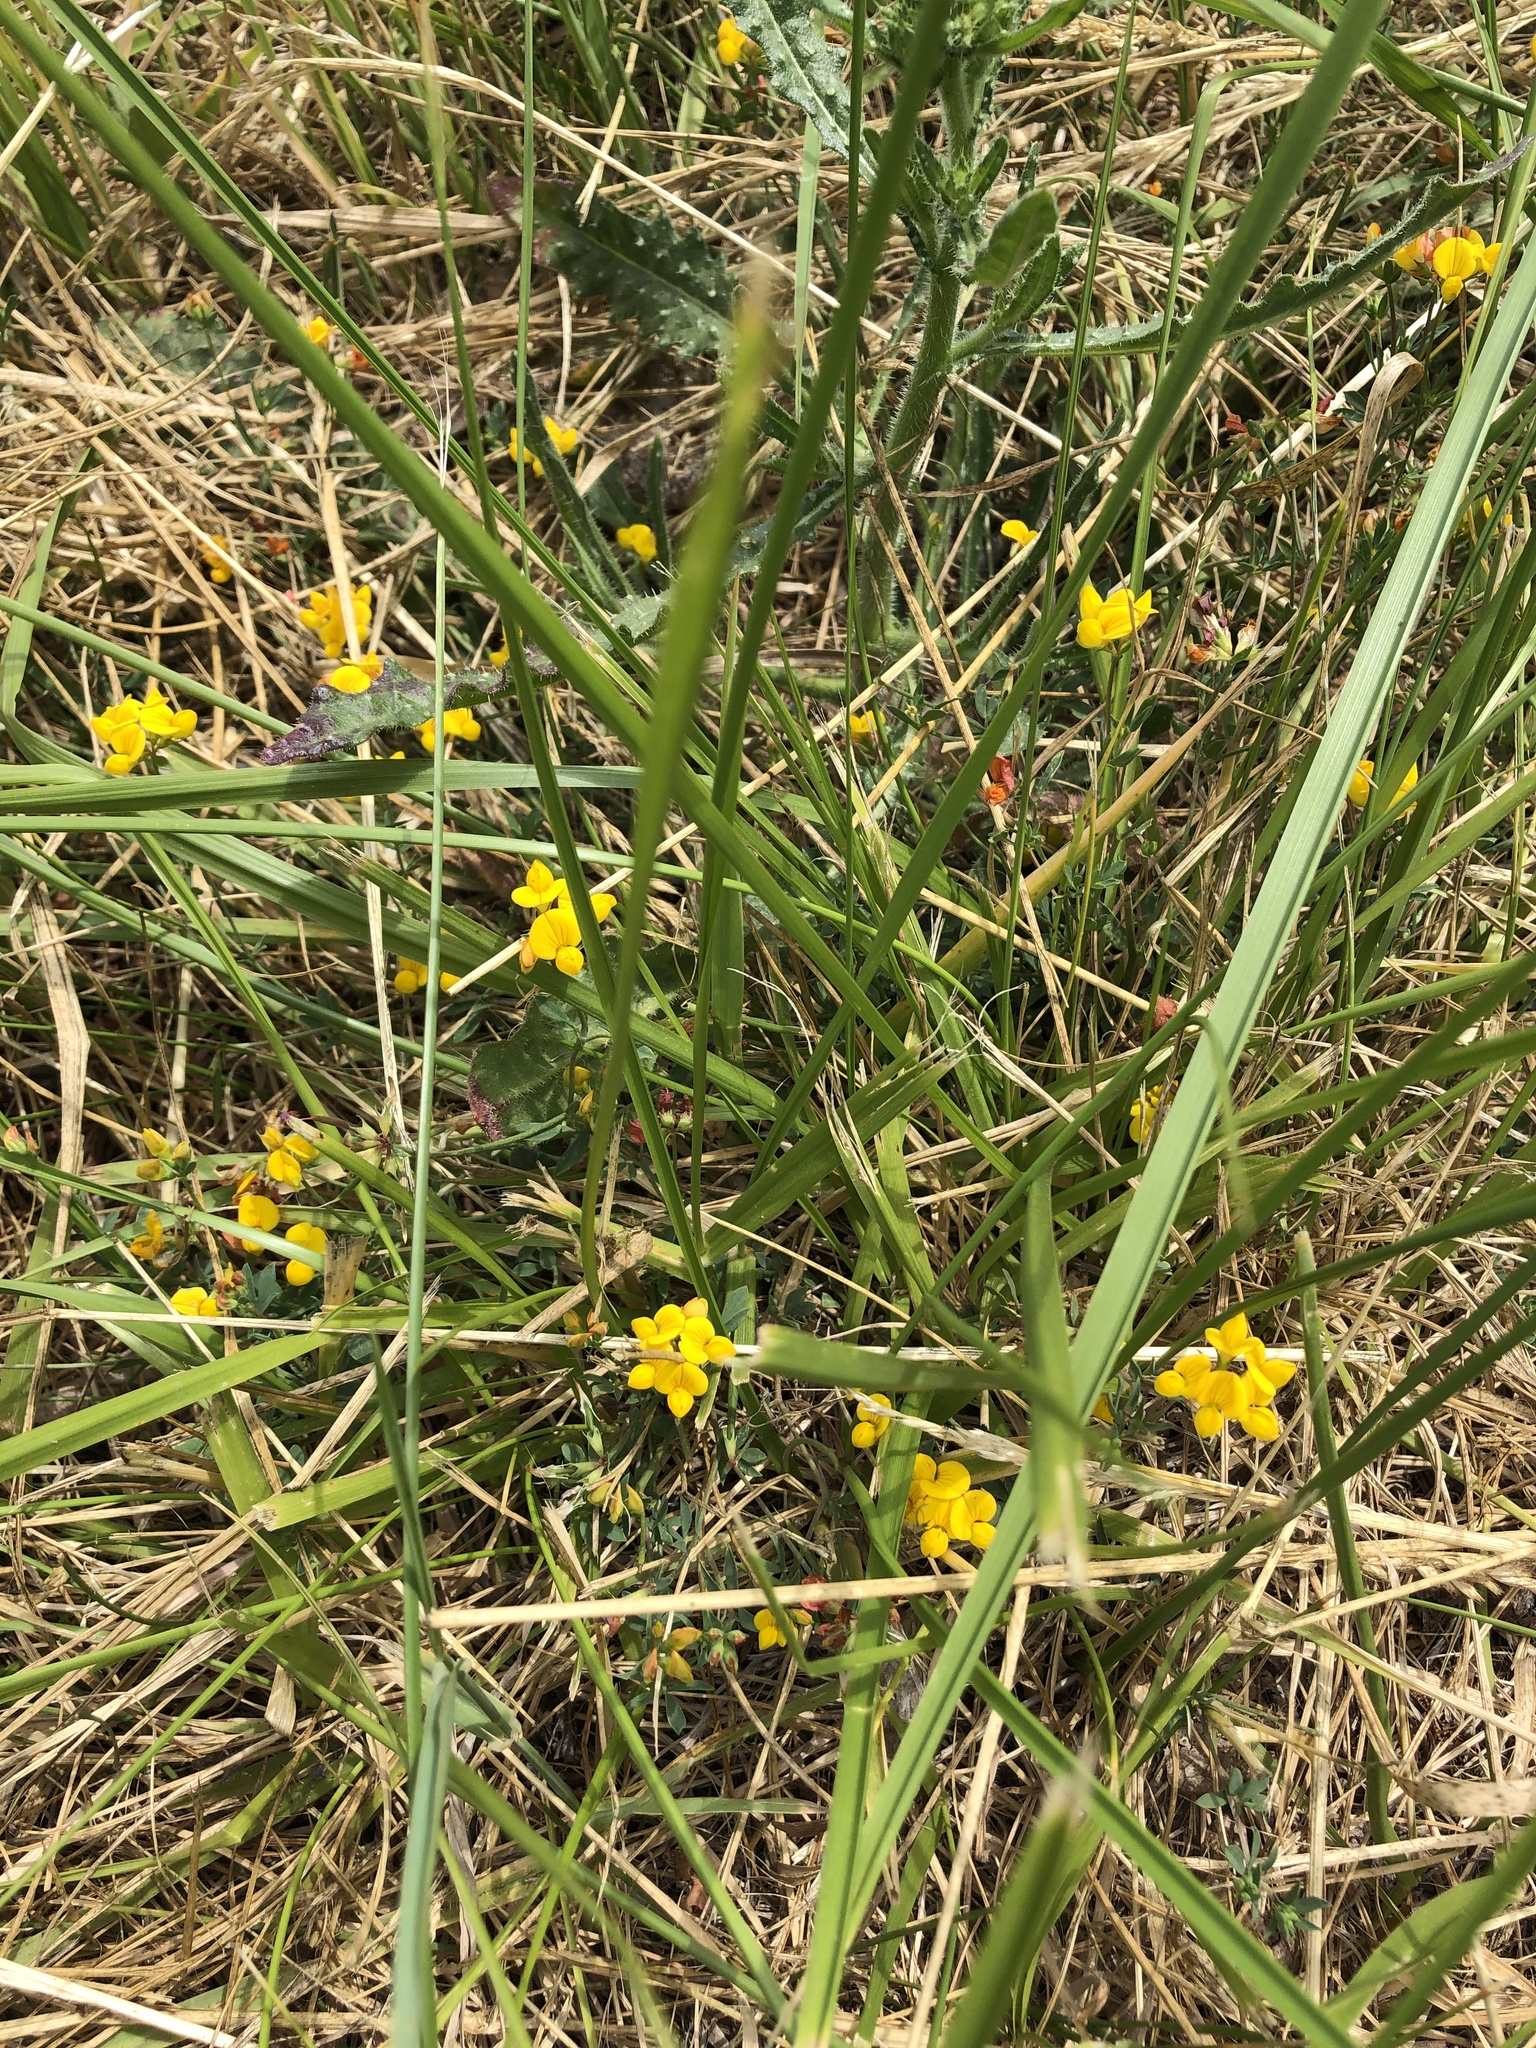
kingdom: Plantae
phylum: Tracheophyta
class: Magnoliopsida
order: Fabales
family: Fabaceae
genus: Lotus
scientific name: Lotus corniculatus
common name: Common bird's-foot-trefoil
